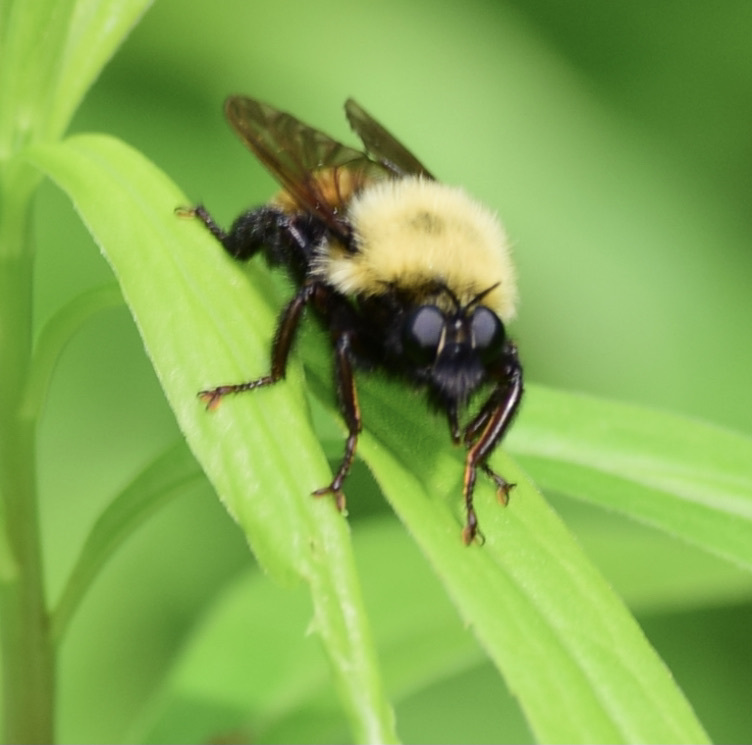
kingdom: Animalia
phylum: Arthropoda
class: Insecta
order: Diptera
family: Asilidae
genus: Laphria
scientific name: Laphria thoracica
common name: Bumble bee mimic robber fly
